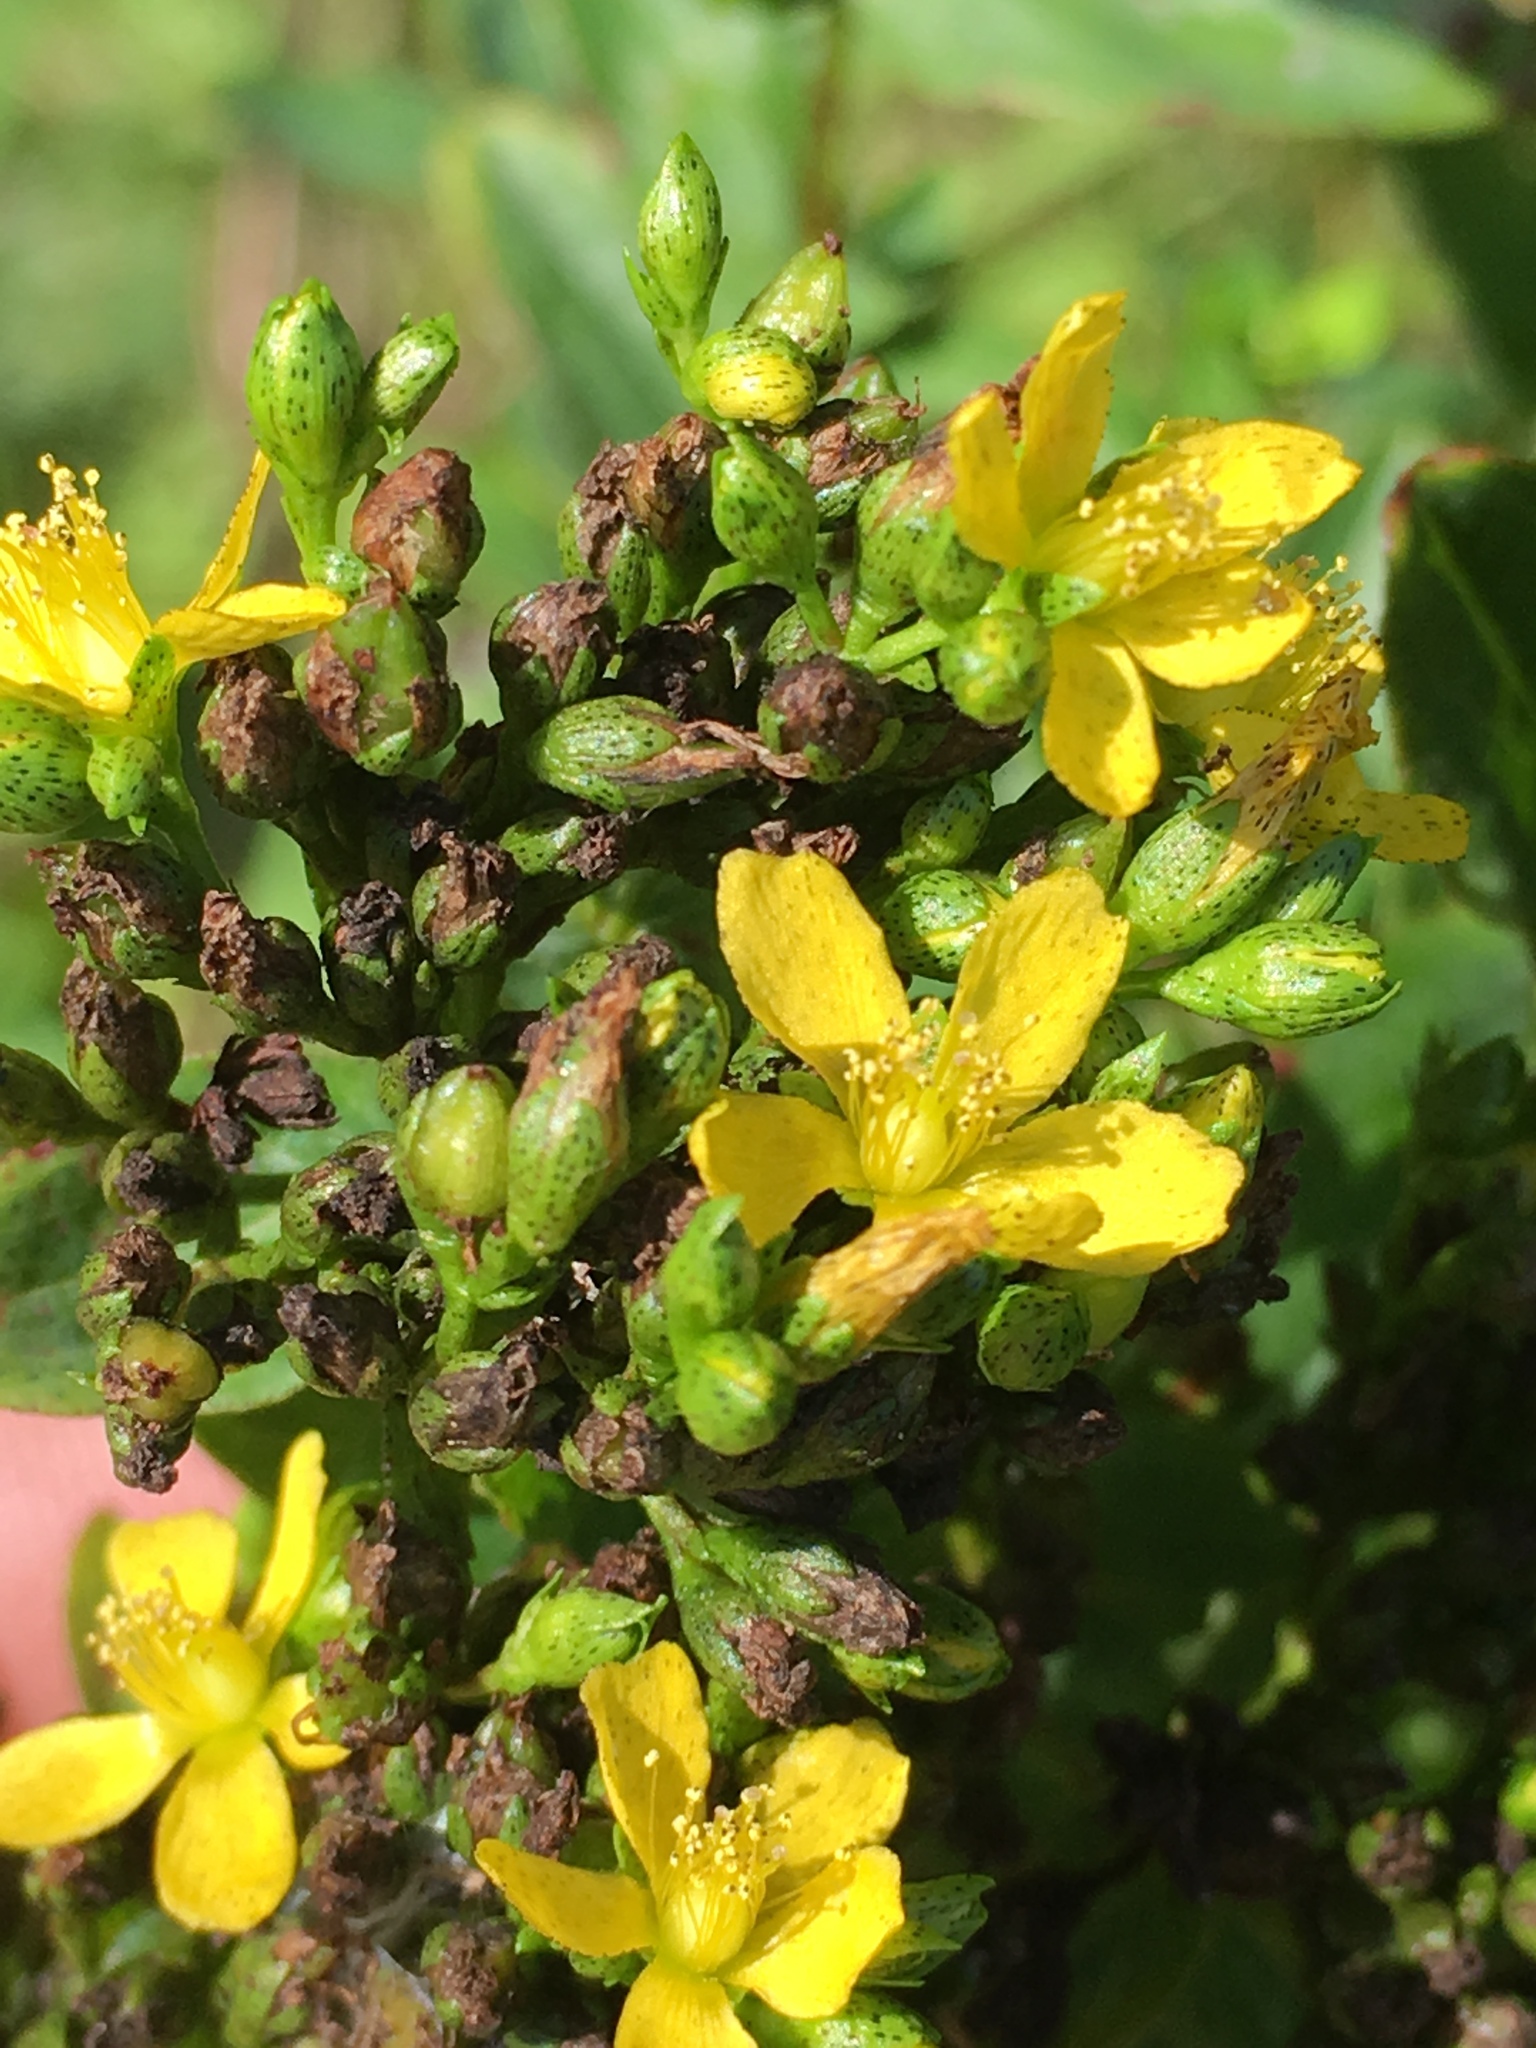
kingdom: Plantae
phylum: Tracheophyta
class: Magnoliopsida
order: Malpighiales
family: Hypericaceae
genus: Hypericum
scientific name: Hypericum punctatum
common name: Spotted st. john's-wort
